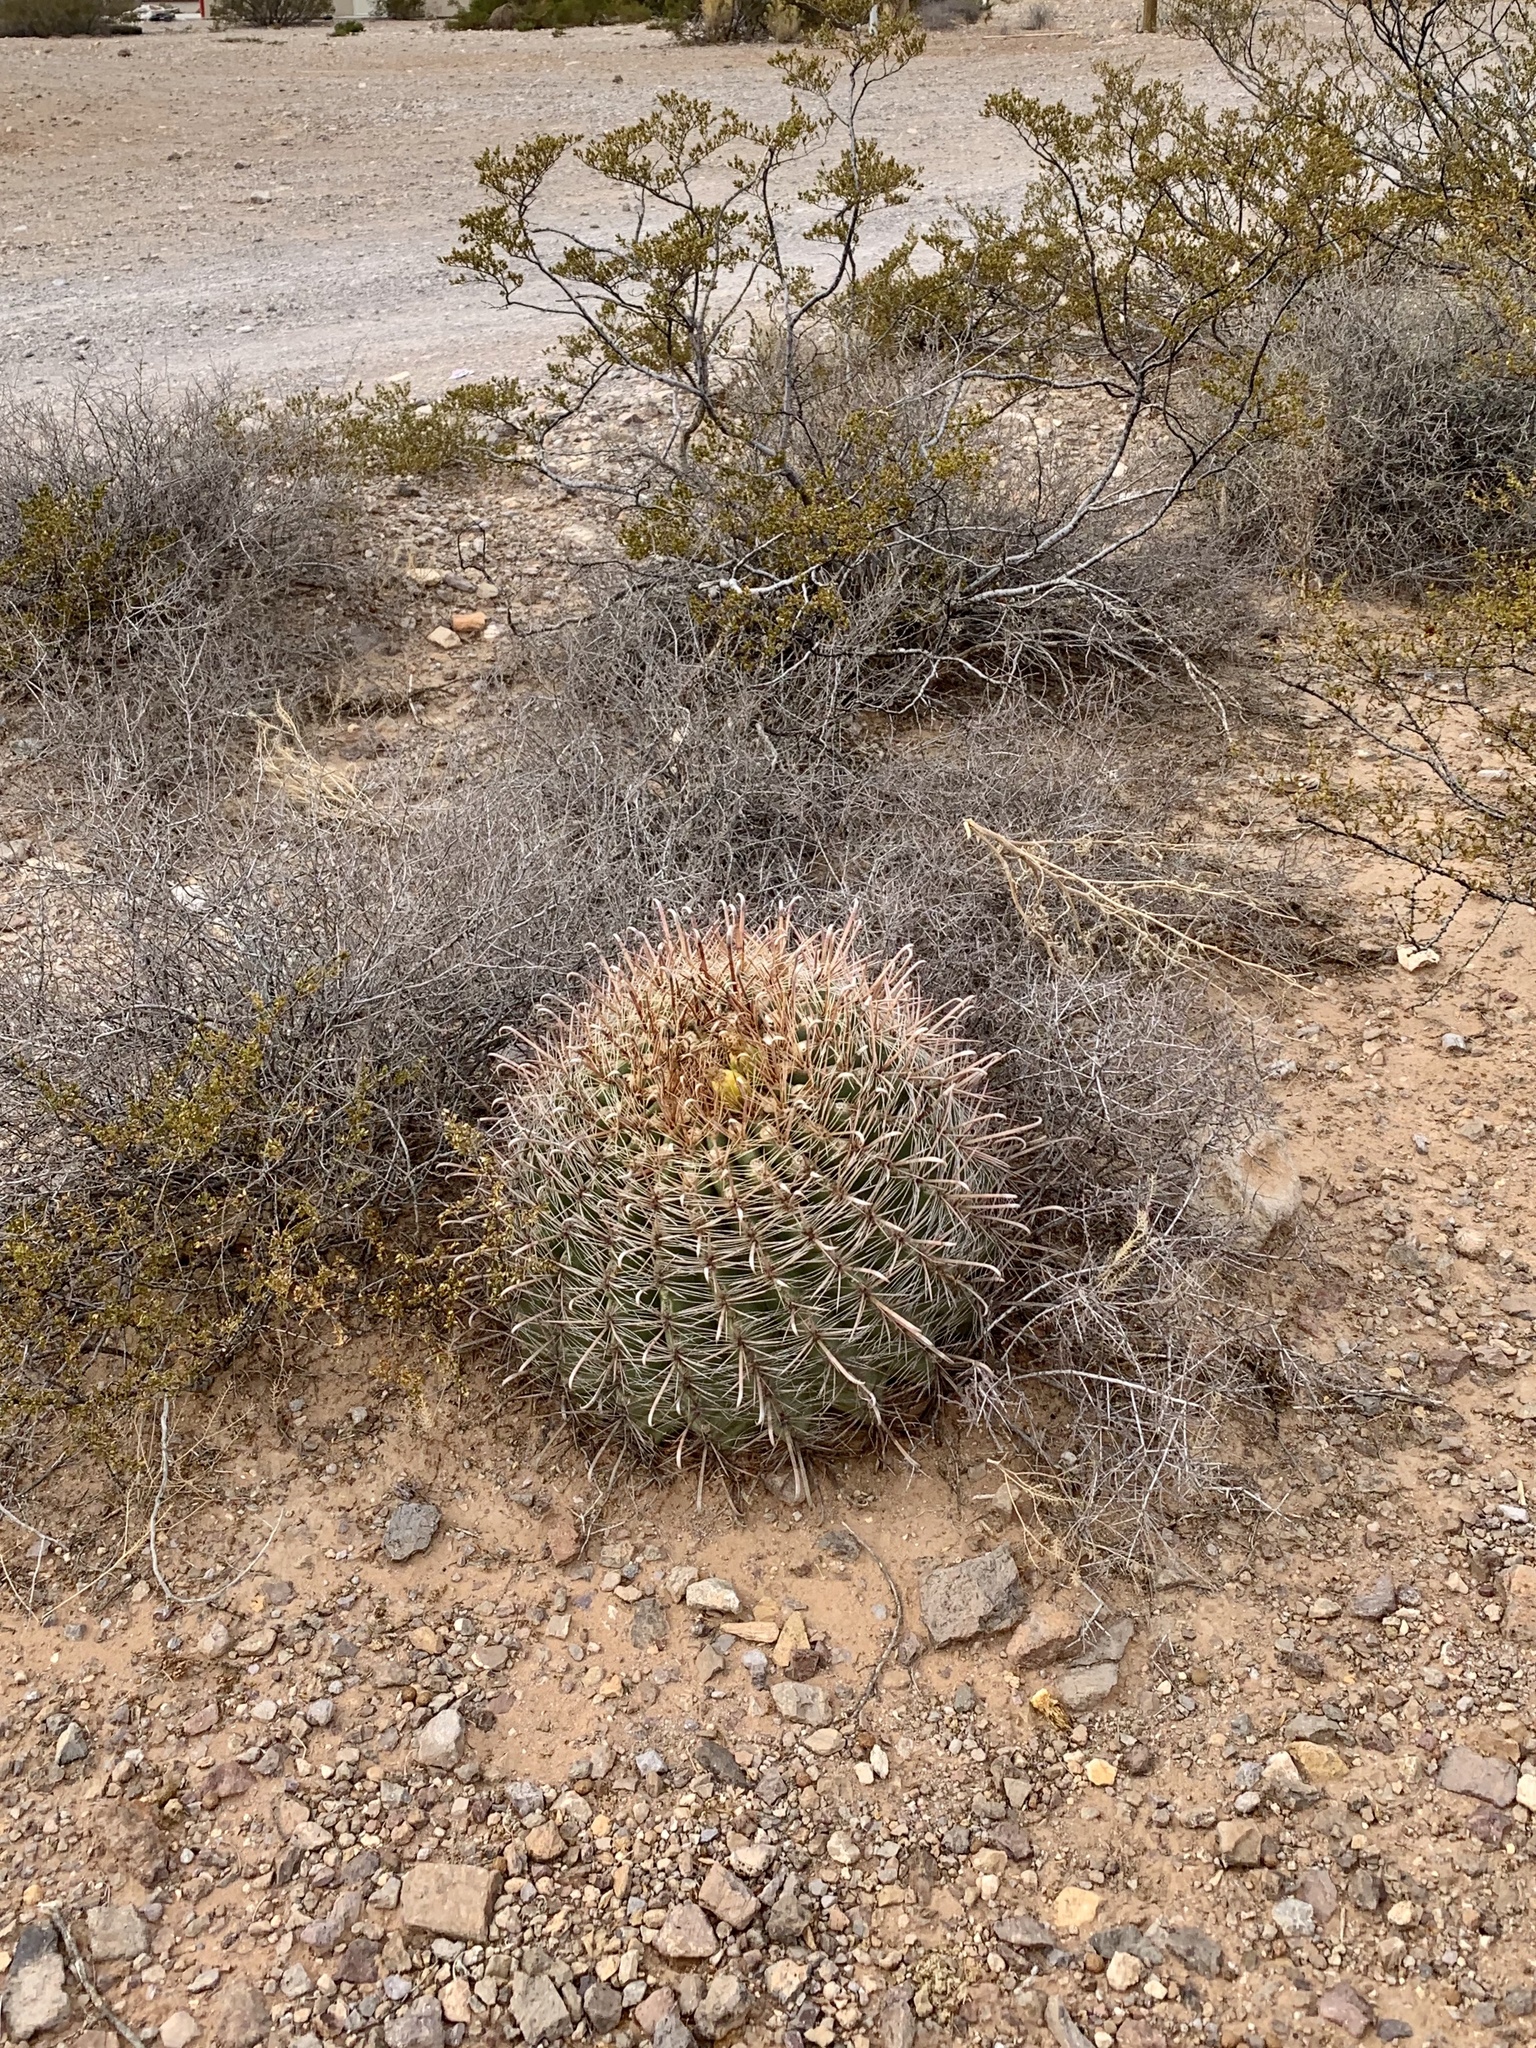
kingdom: Plantae
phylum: Tracheophyta
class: Magnoliopsida
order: Caryophyllales
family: Cactaceae
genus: Ferocactus
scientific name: Ferocactus wislizeni
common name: Candy barrel cactus
